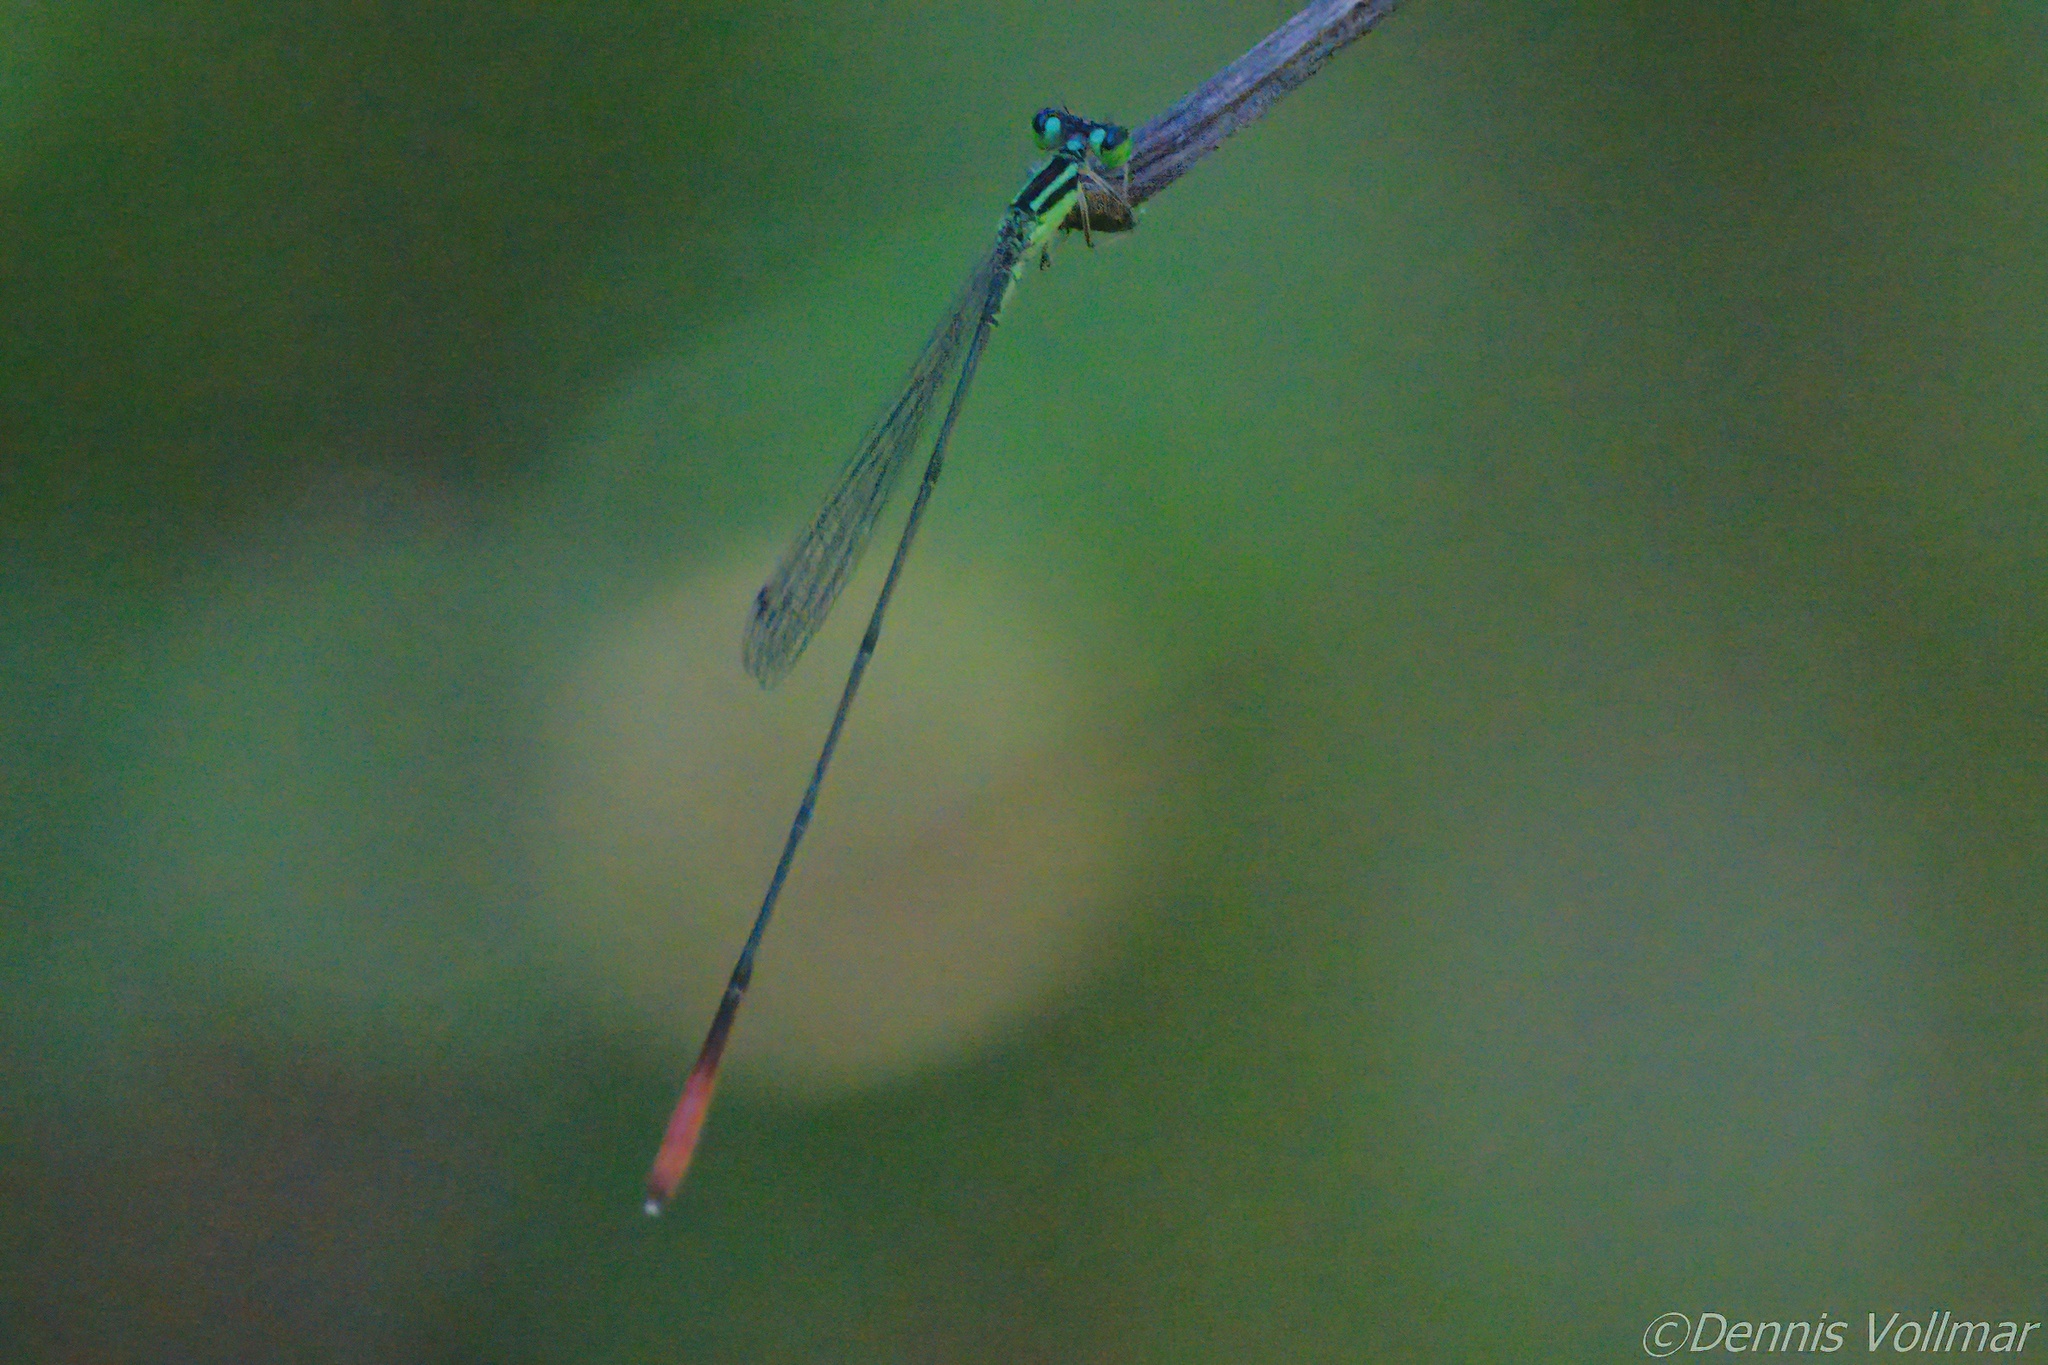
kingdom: Animalia
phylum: Arthropoda
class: Insecta
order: Odonata
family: Coenagrionidae
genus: Leptobasis
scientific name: Leptobasis lucifer
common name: Lucifer swampdamsel
